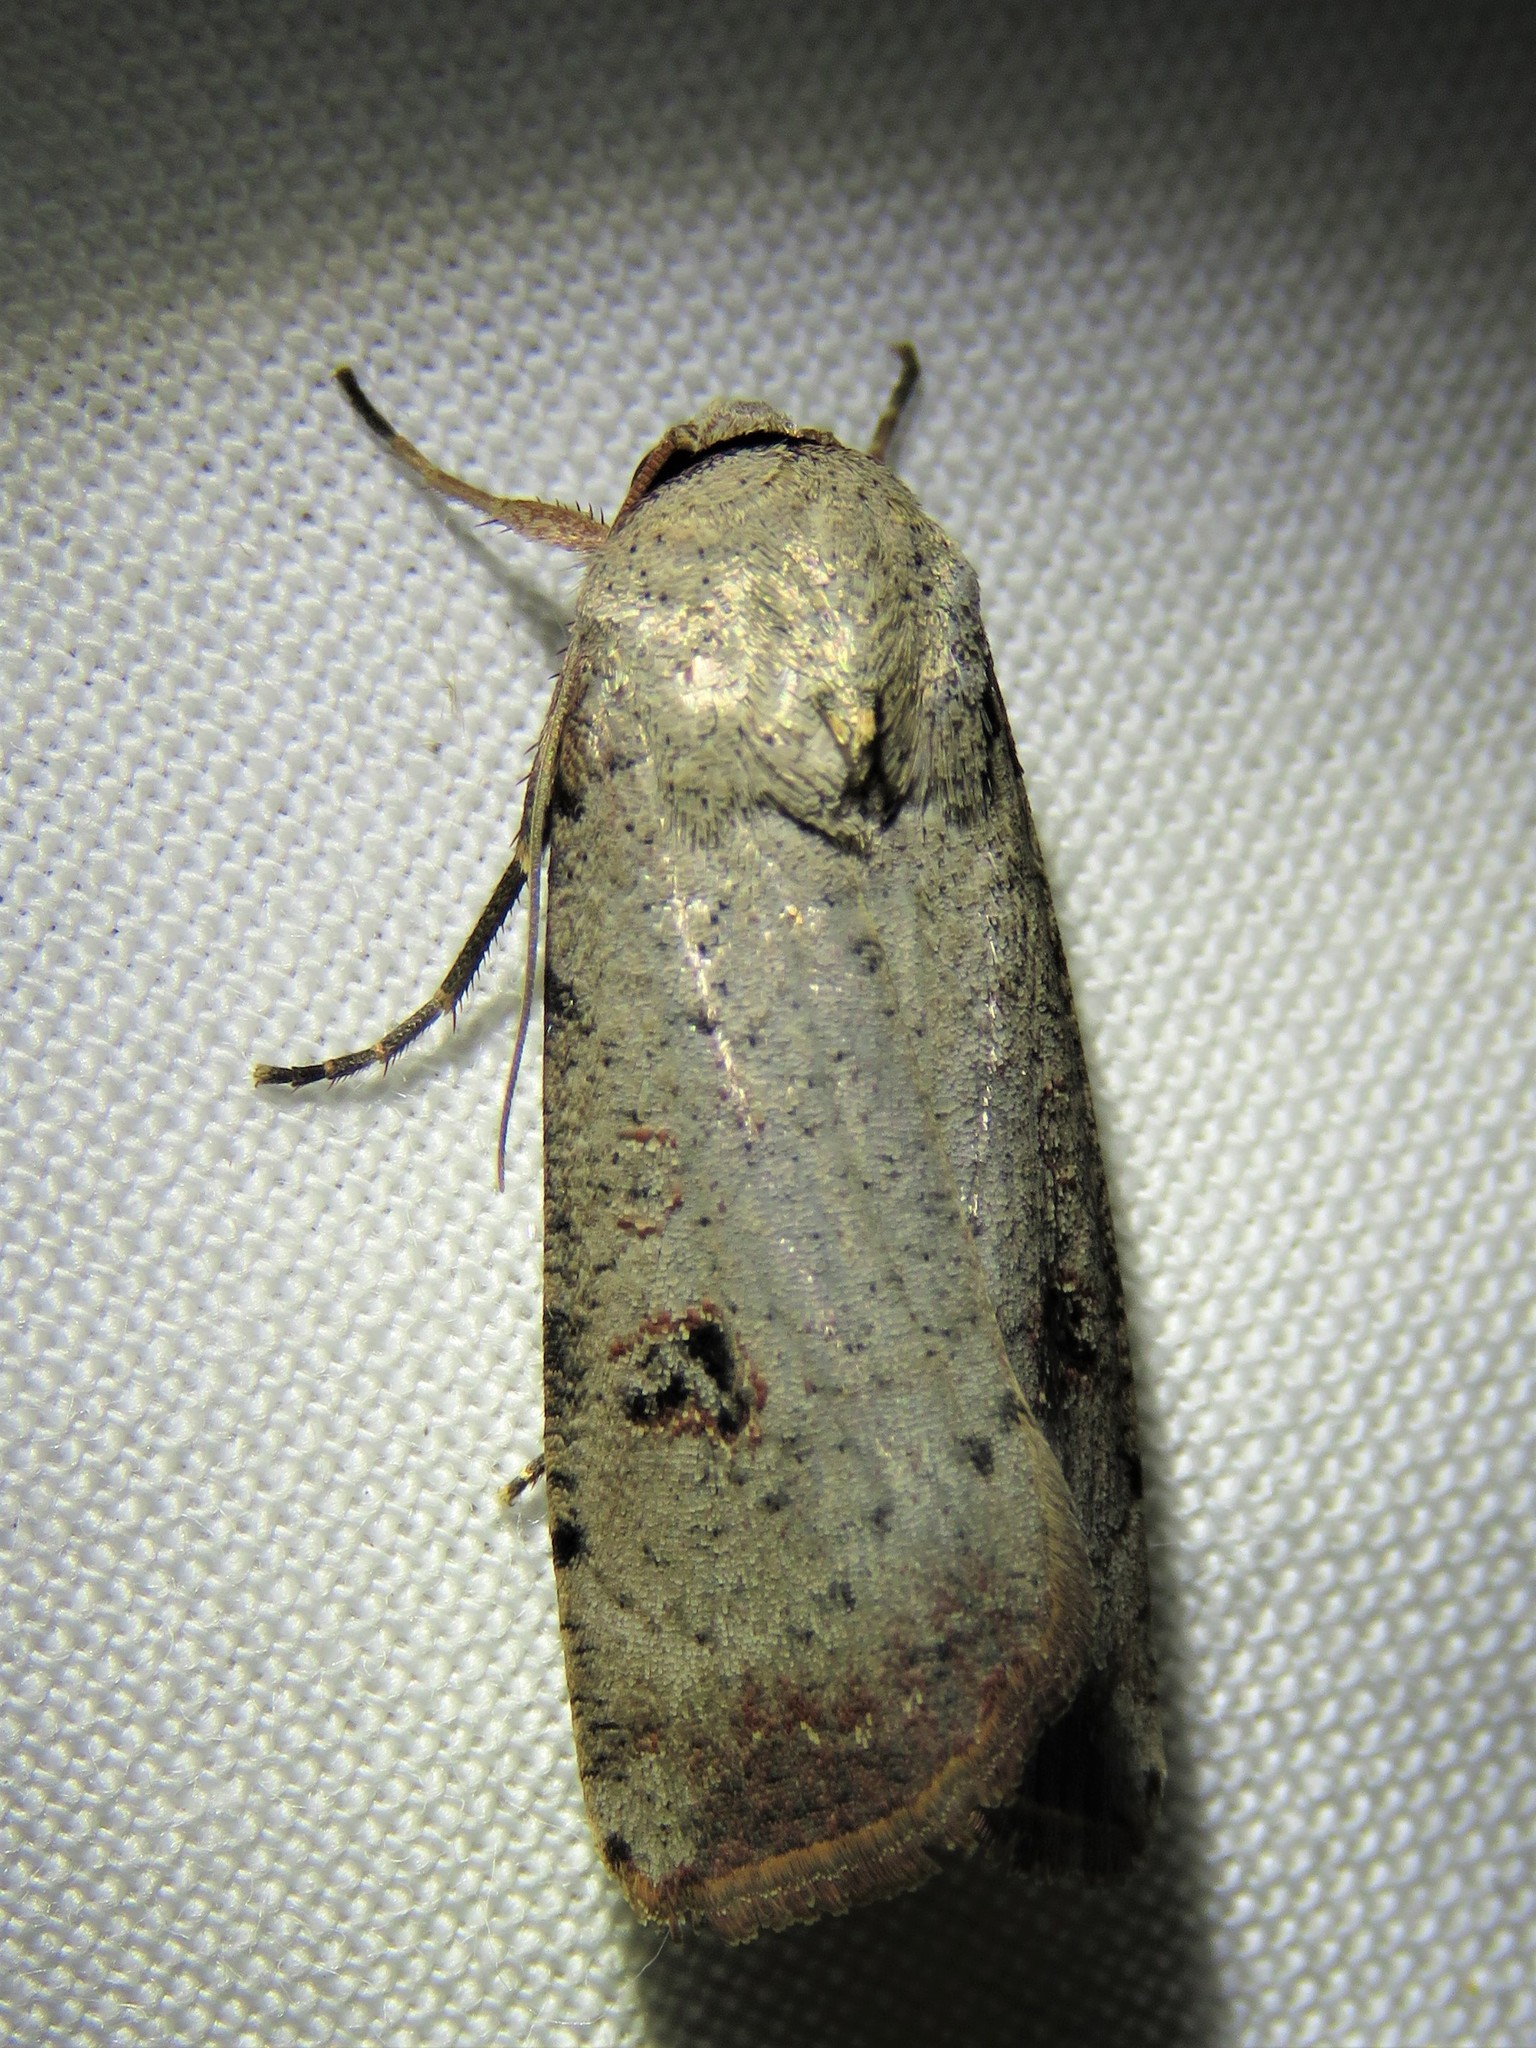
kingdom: Animalia
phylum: Arthropoda
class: Insecta
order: Lepidoptera
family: Noctuidae
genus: Anicla
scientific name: Anicla infecta
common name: Green cutworm
